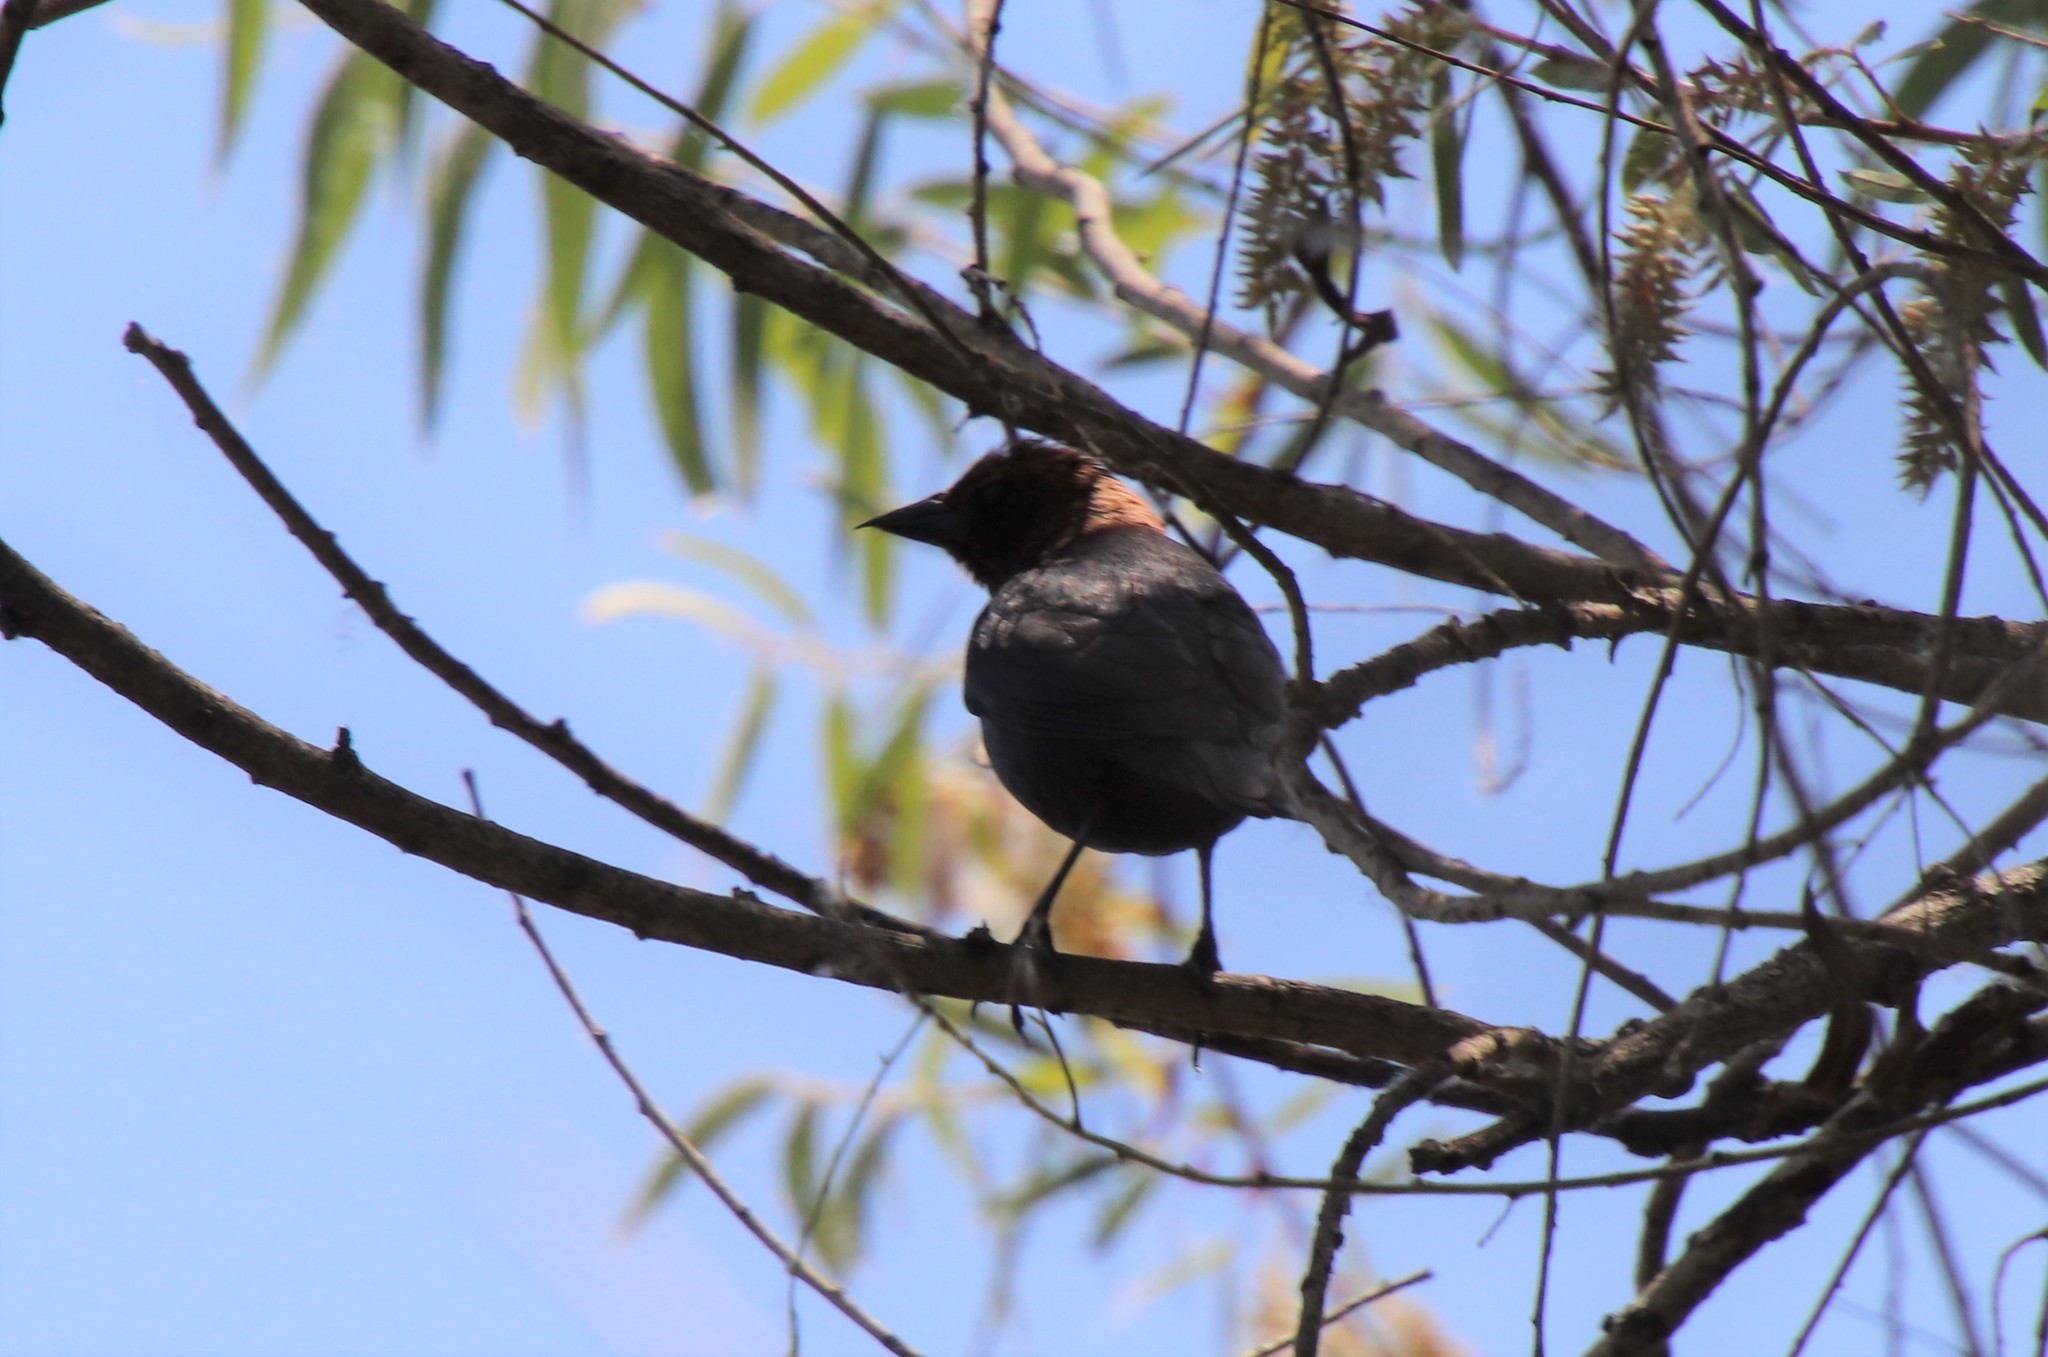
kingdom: Animalia
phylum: Chordata
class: Aves
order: Passeriformes
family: Icteridae
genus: Molothrus
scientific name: Molothrus ater
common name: Brown-headed cowbird
